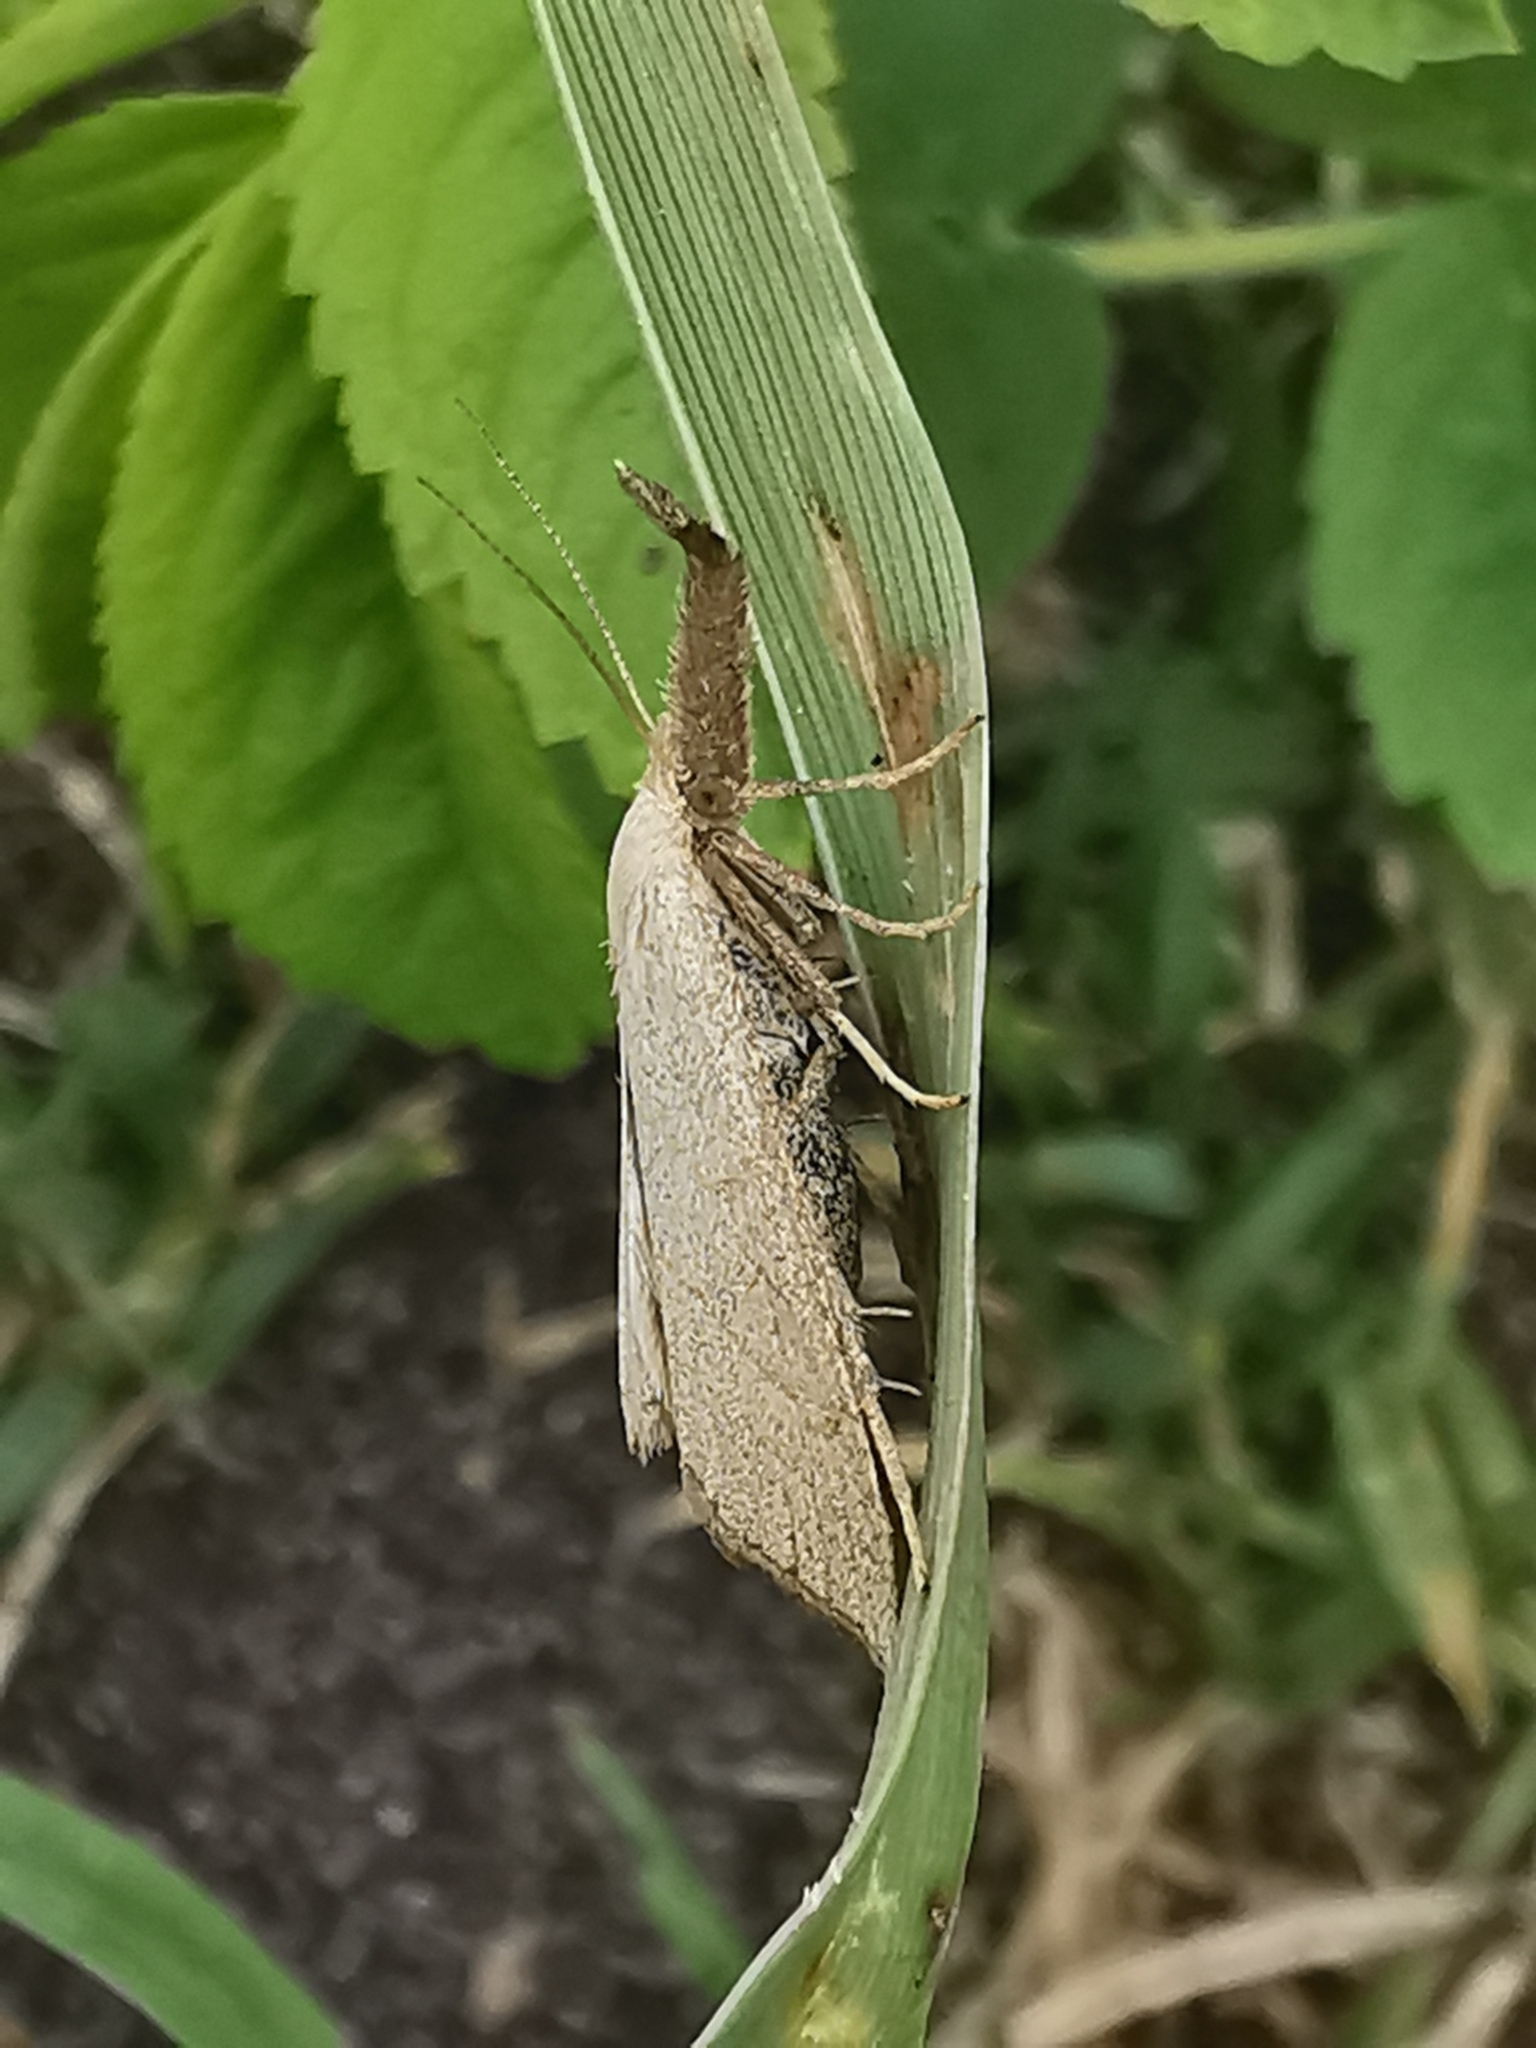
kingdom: Animalia
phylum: Arthropoda
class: Insecta
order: Lepidoptera
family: Erebidae
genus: Polypogon
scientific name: Polypogon tentacularia
